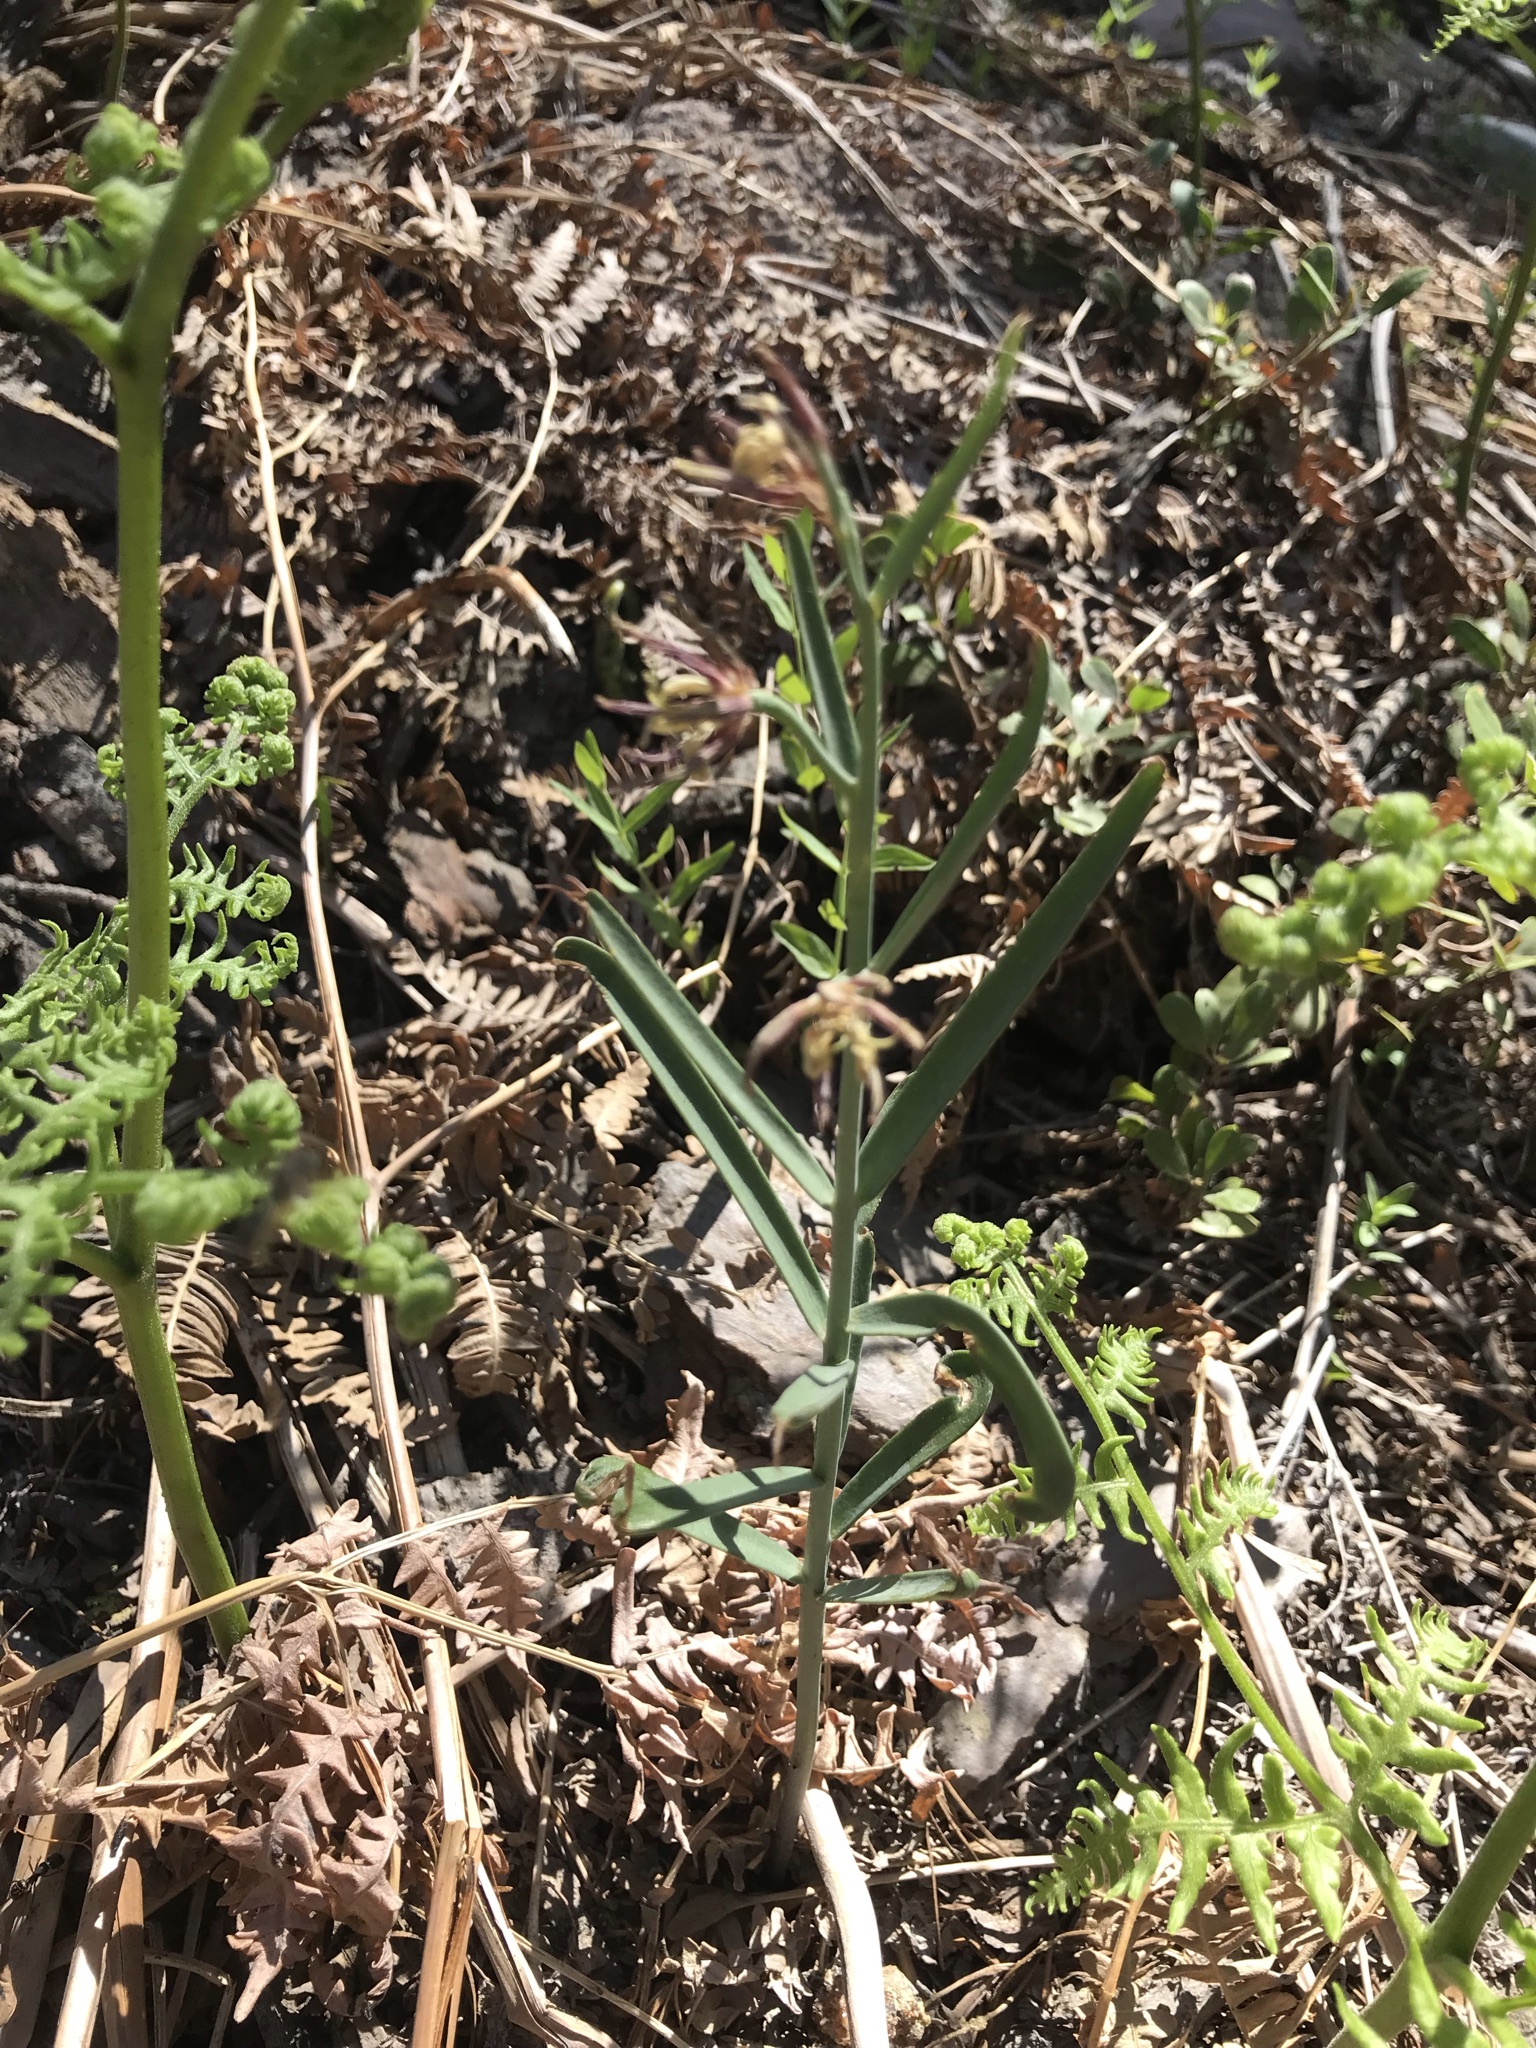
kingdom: Plantae
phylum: Tracheophyta
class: Liliopsida
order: Liliales
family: Liliaceae
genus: Fritillaria
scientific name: Fritillaria atropurpurea
